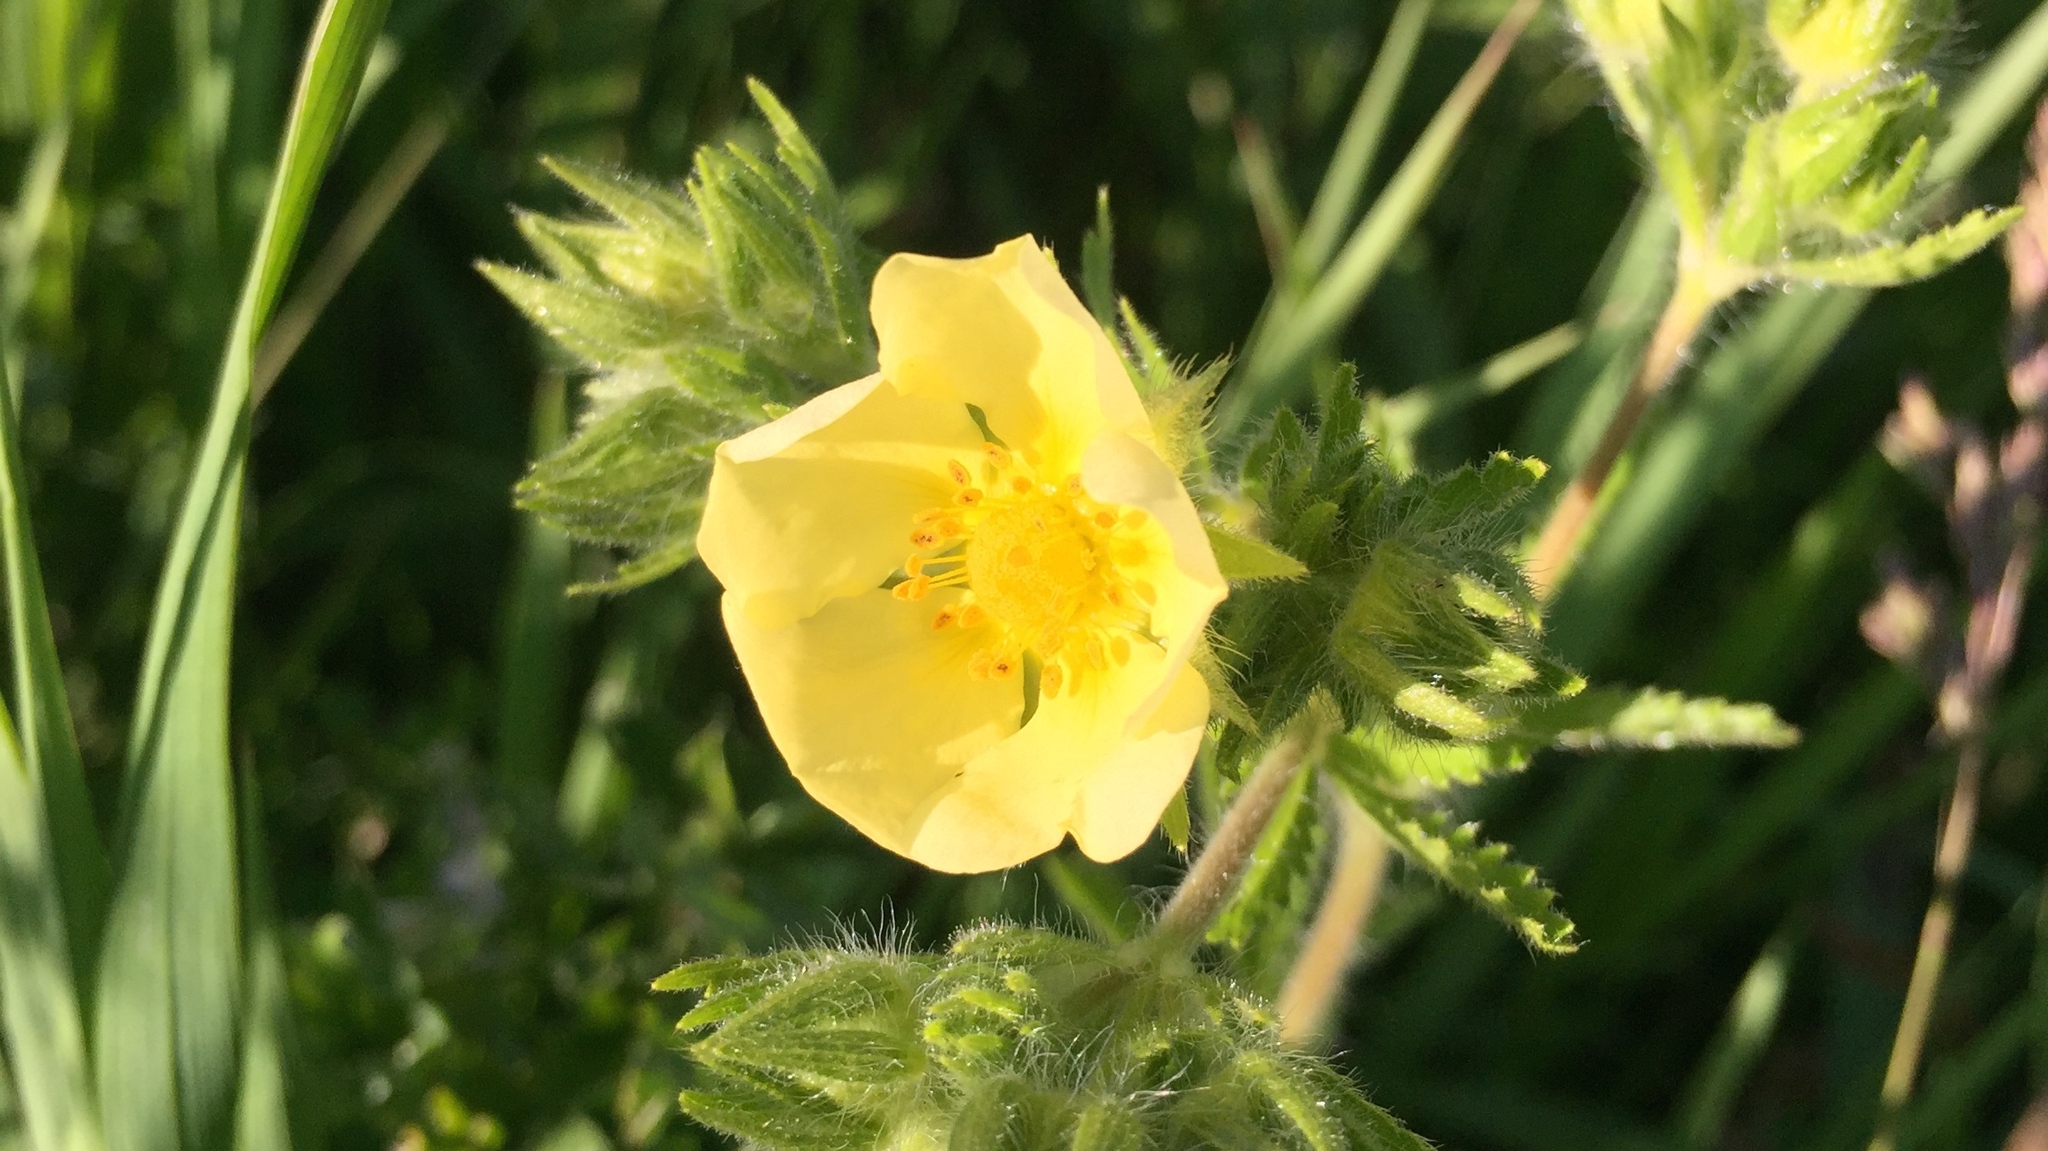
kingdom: Plantae
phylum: Tracheophyta
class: Magnoliopsida
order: Rosales
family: Rosaceae
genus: Potentilla
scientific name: Potentilla recta
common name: Sulphur cinquefoil
